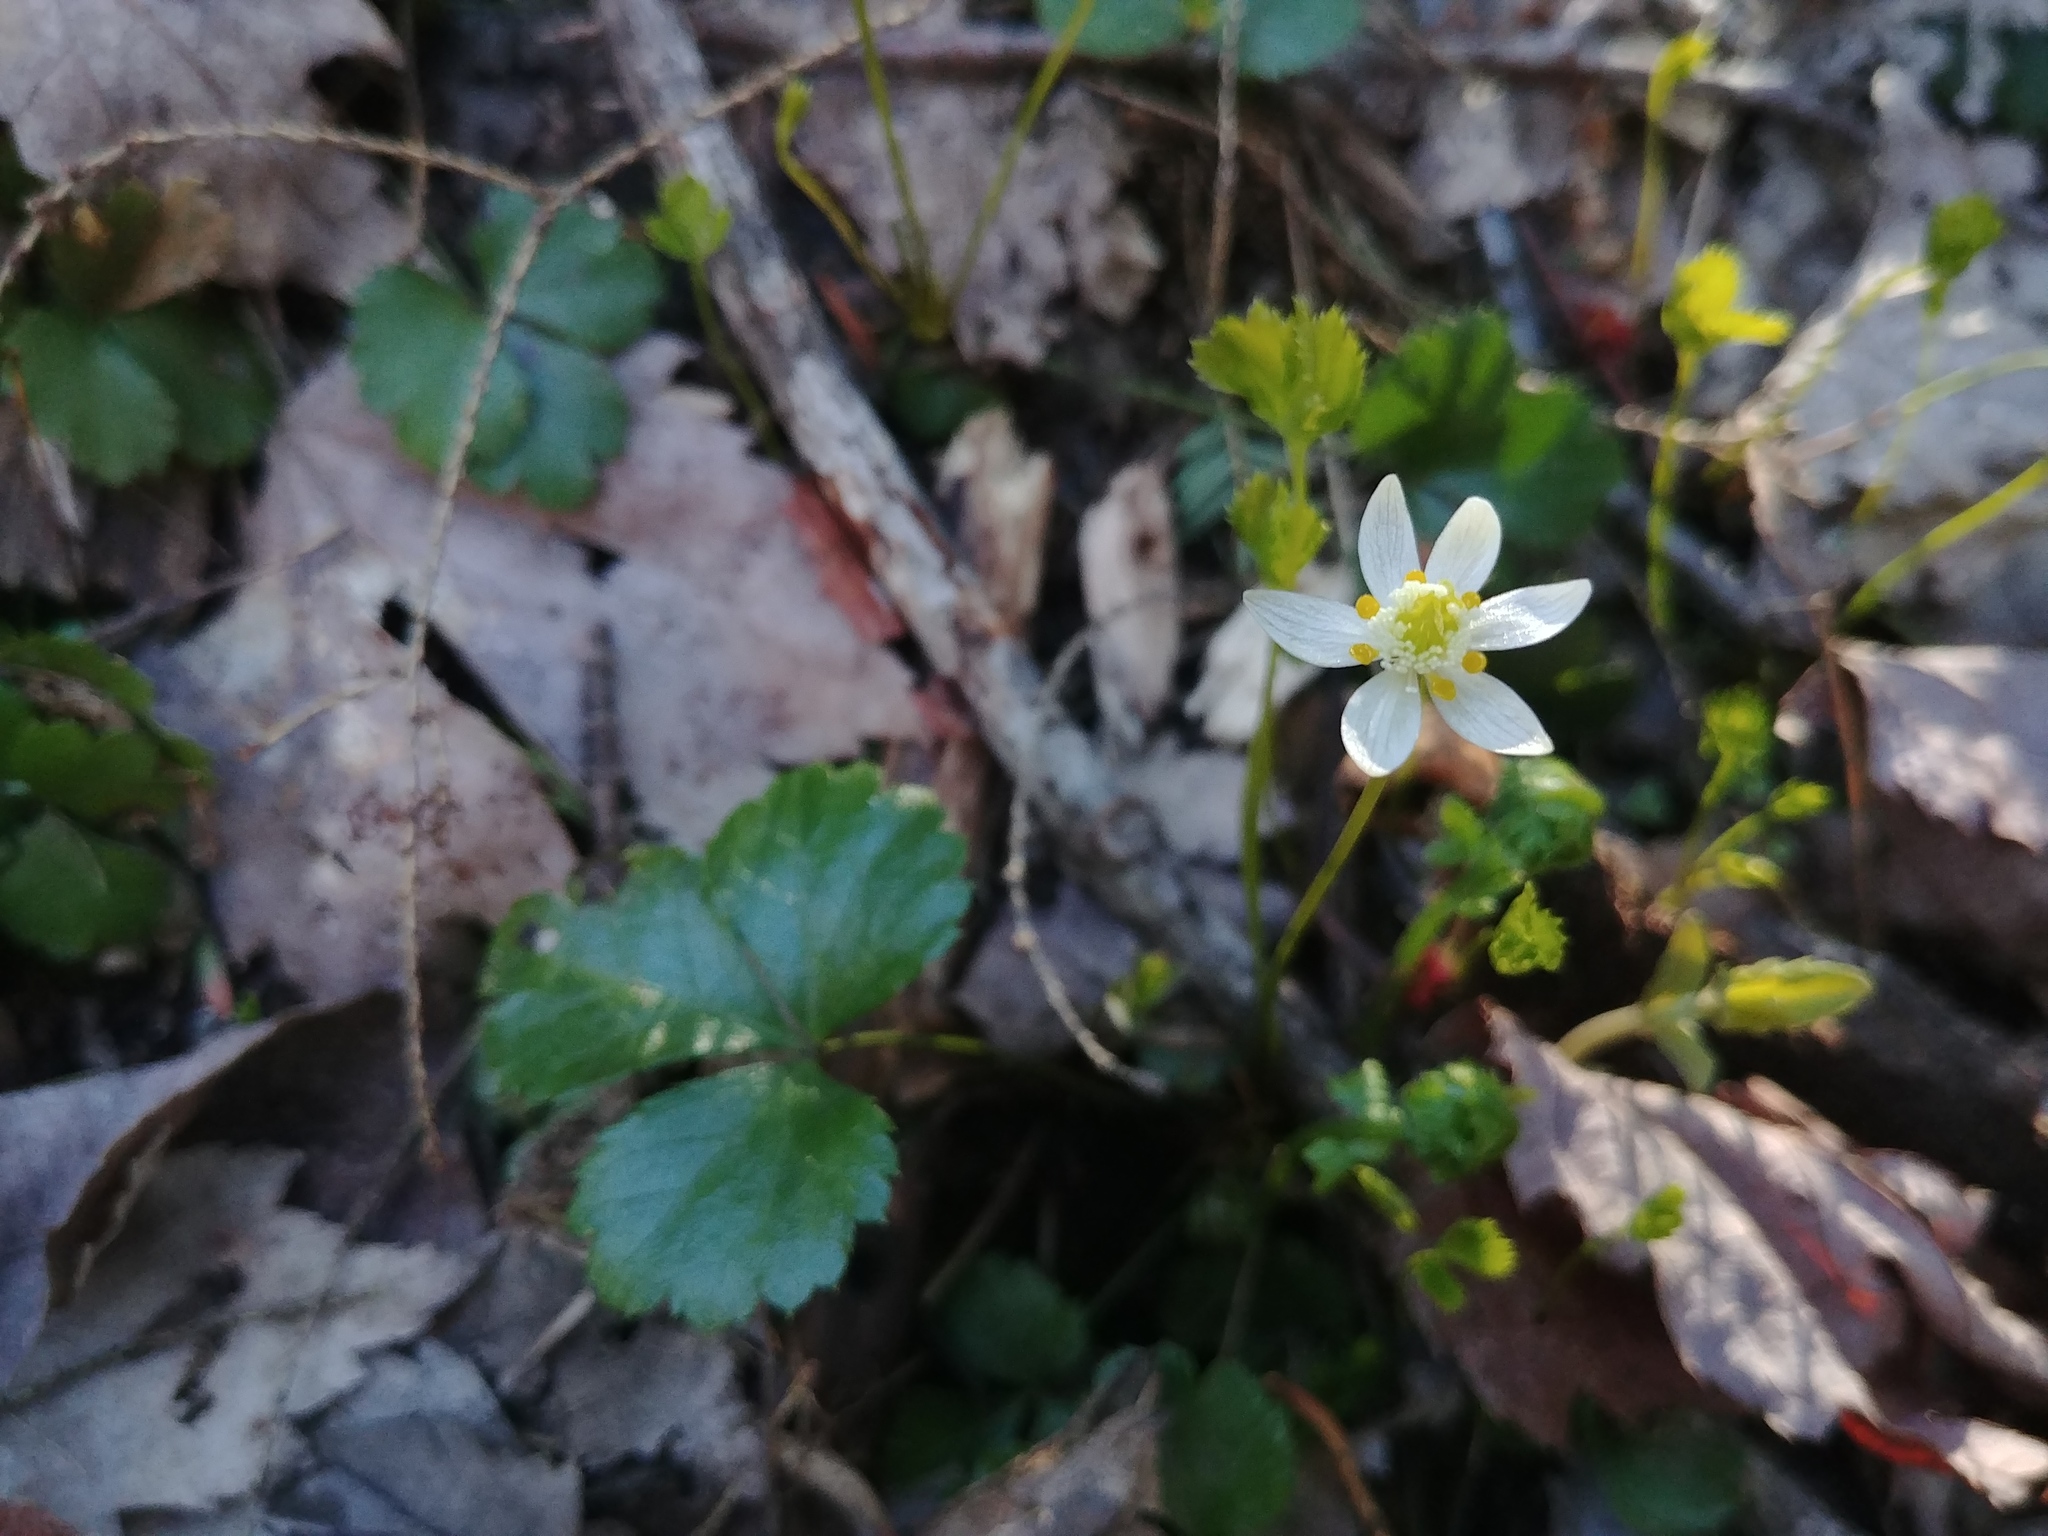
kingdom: Plantae
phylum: Tracheophyta
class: Magnoliopsida
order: Ranunculales
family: Ranunculaceae
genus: Coptis
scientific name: Coptis trifolia
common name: Canker-root
